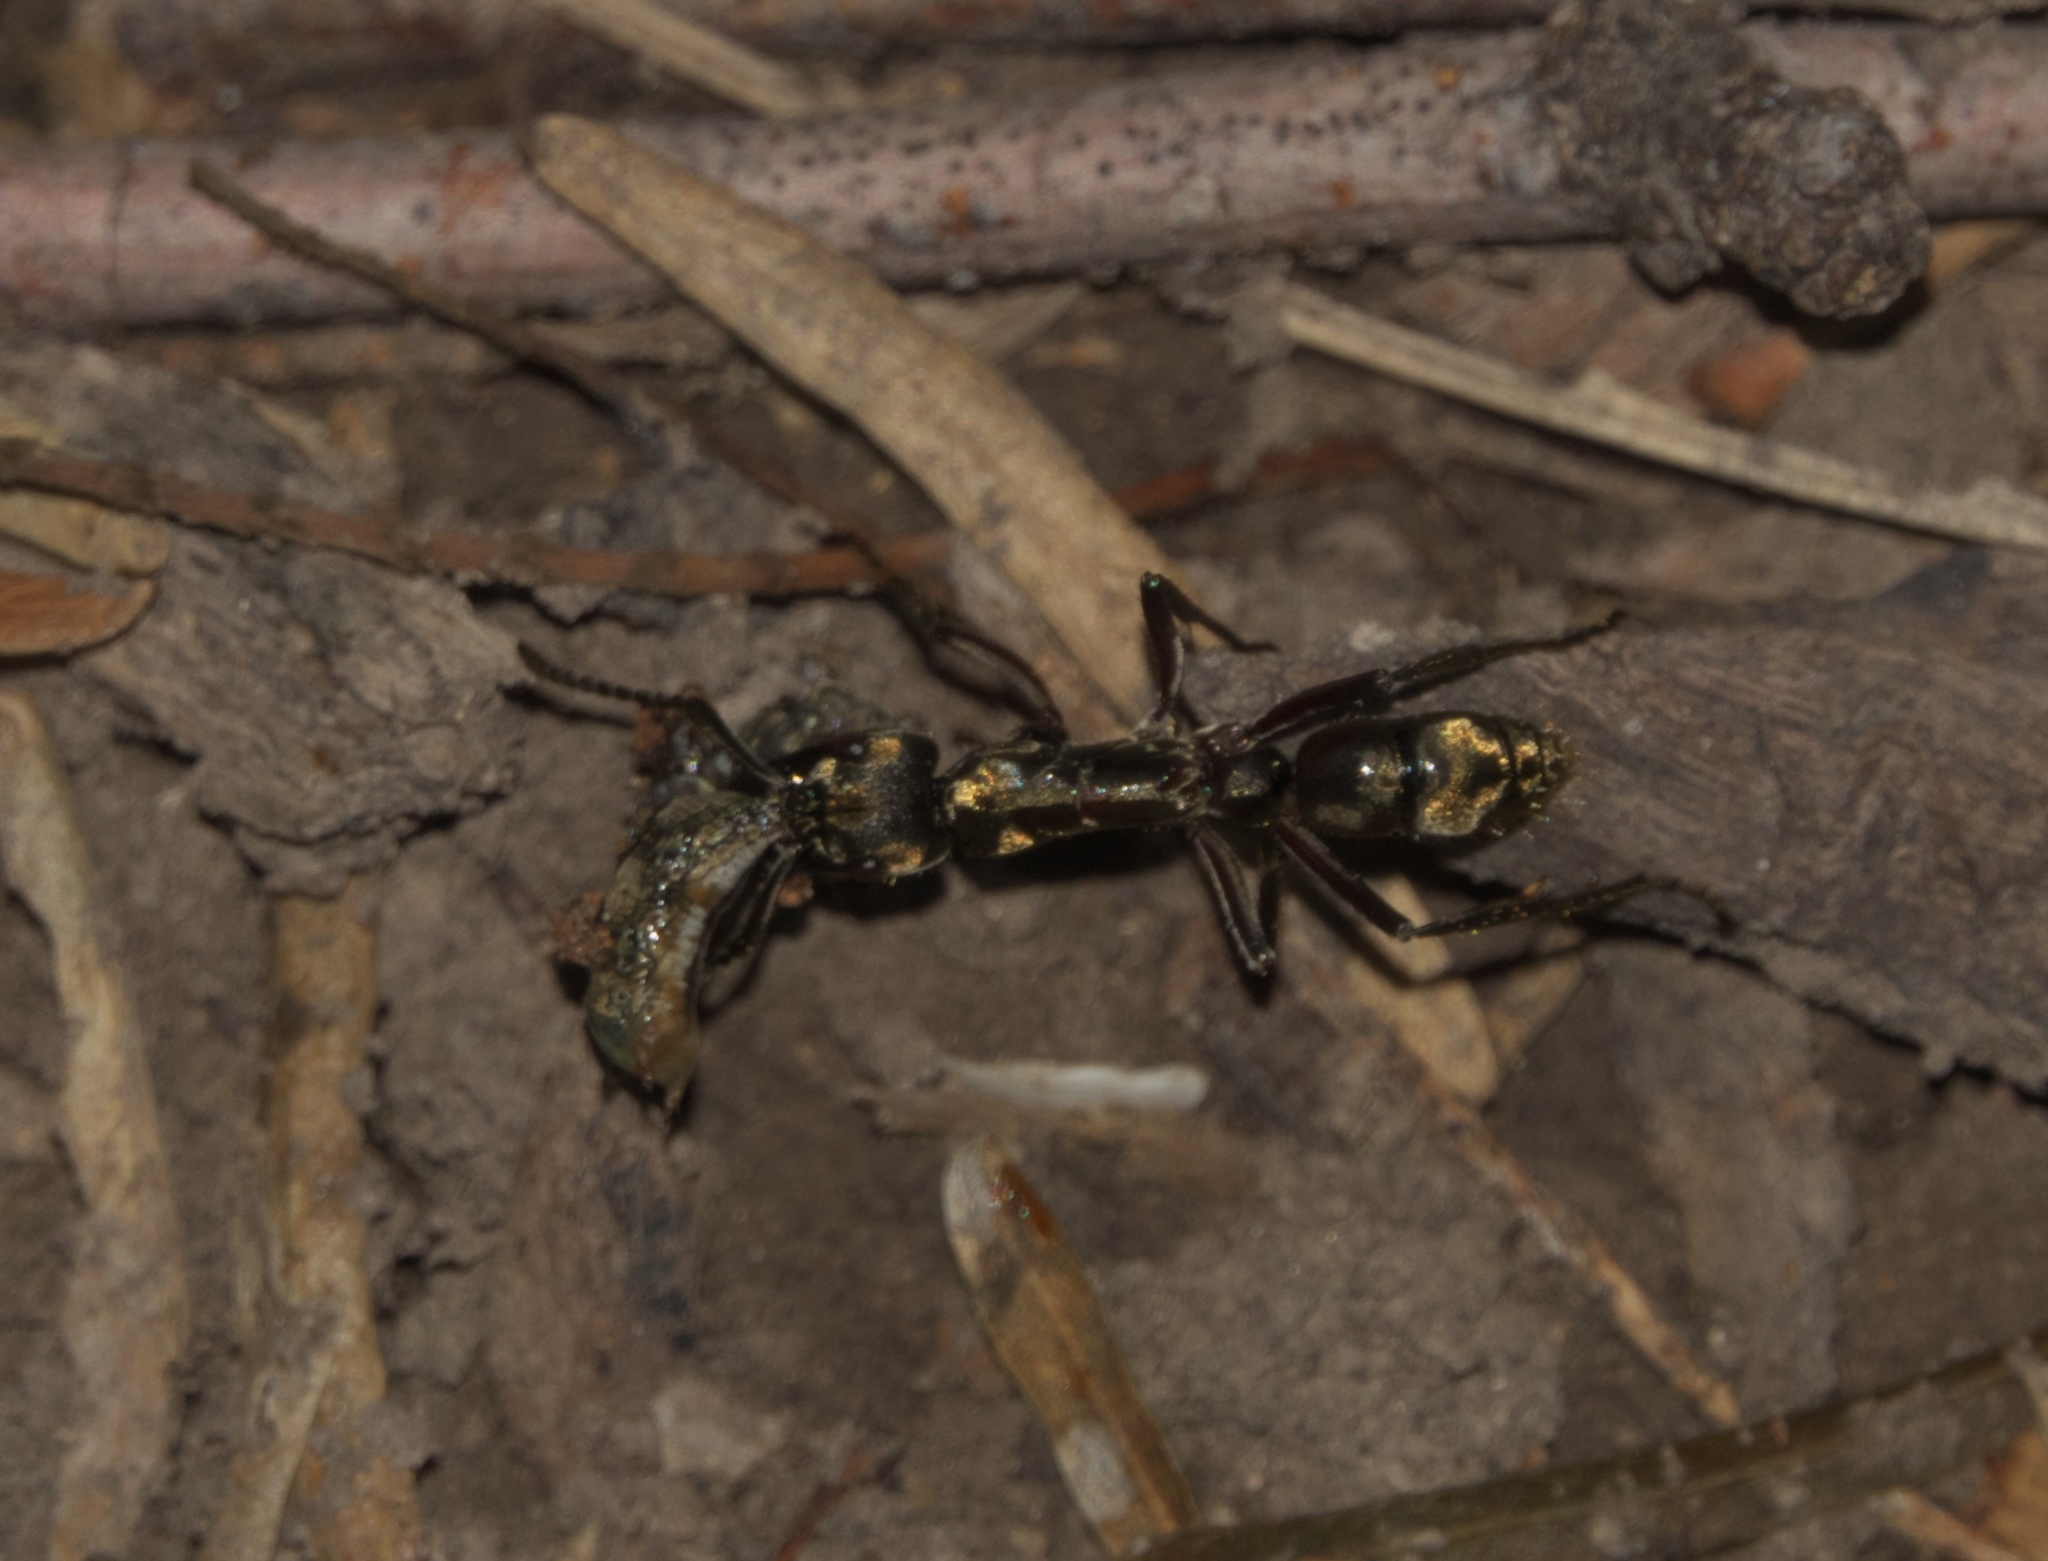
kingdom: Animalia
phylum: Arthropoda
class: Insecta
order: Hymenoptera
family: Formicidae
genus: Pachycondyla
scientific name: Pachycondyla villosa
